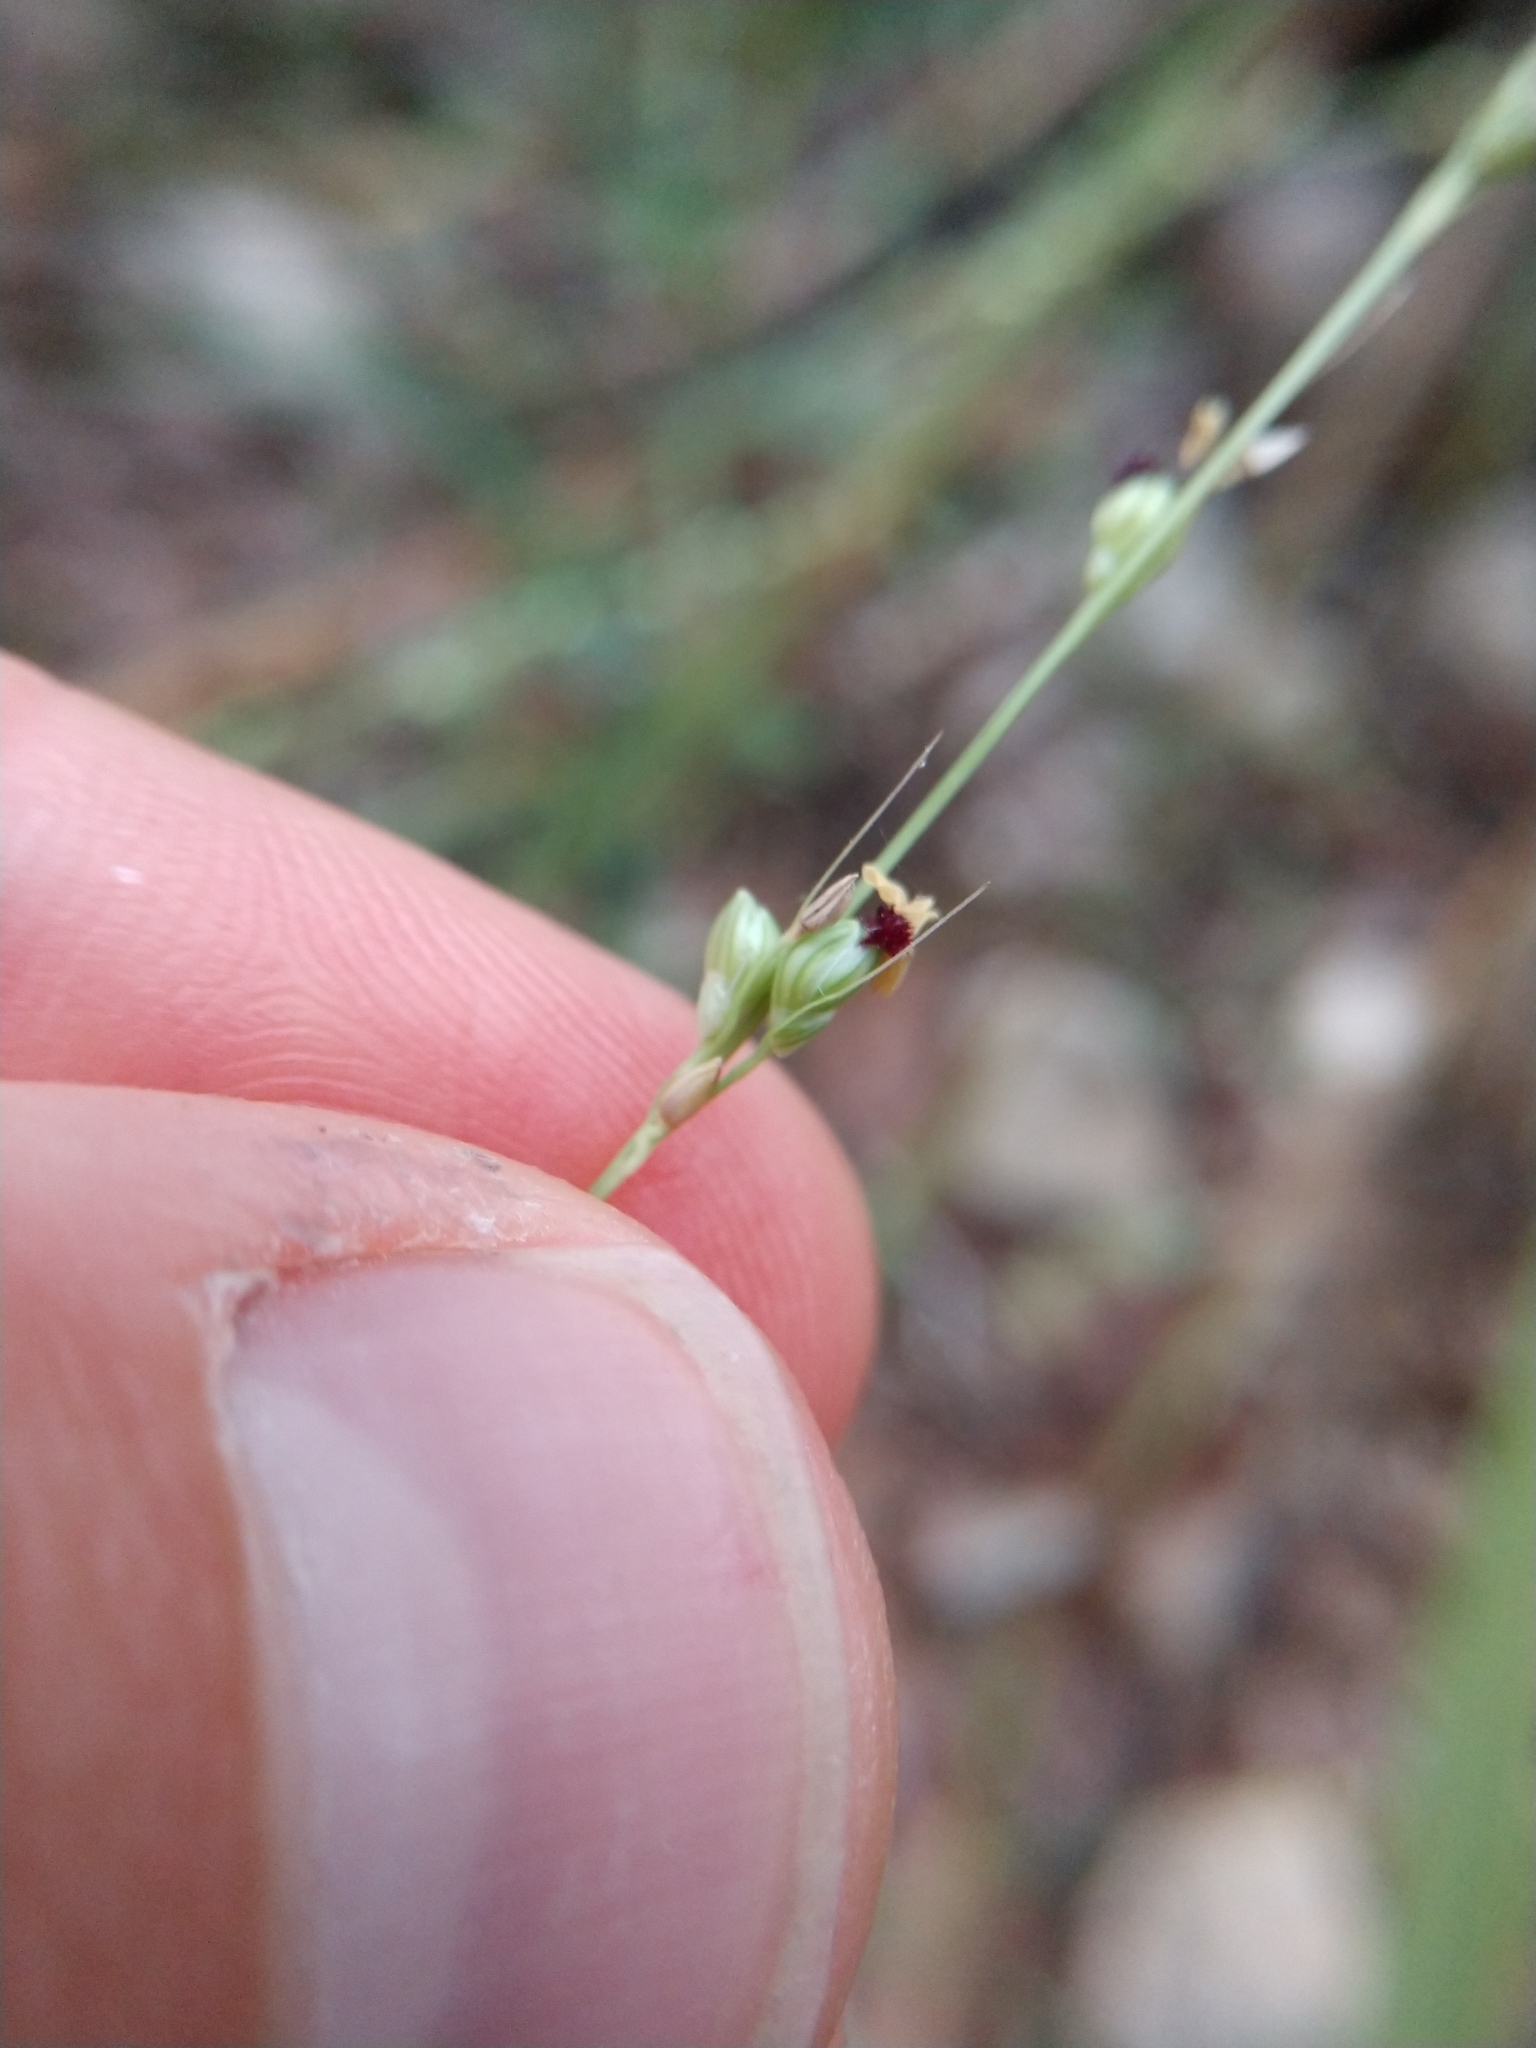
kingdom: Plantae
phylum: Tracheophyta
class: Liliopsida
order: Poales
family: Poaceae
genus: Setaria
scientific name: Setaria reverchonii
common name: Reverchon's bristle grass
